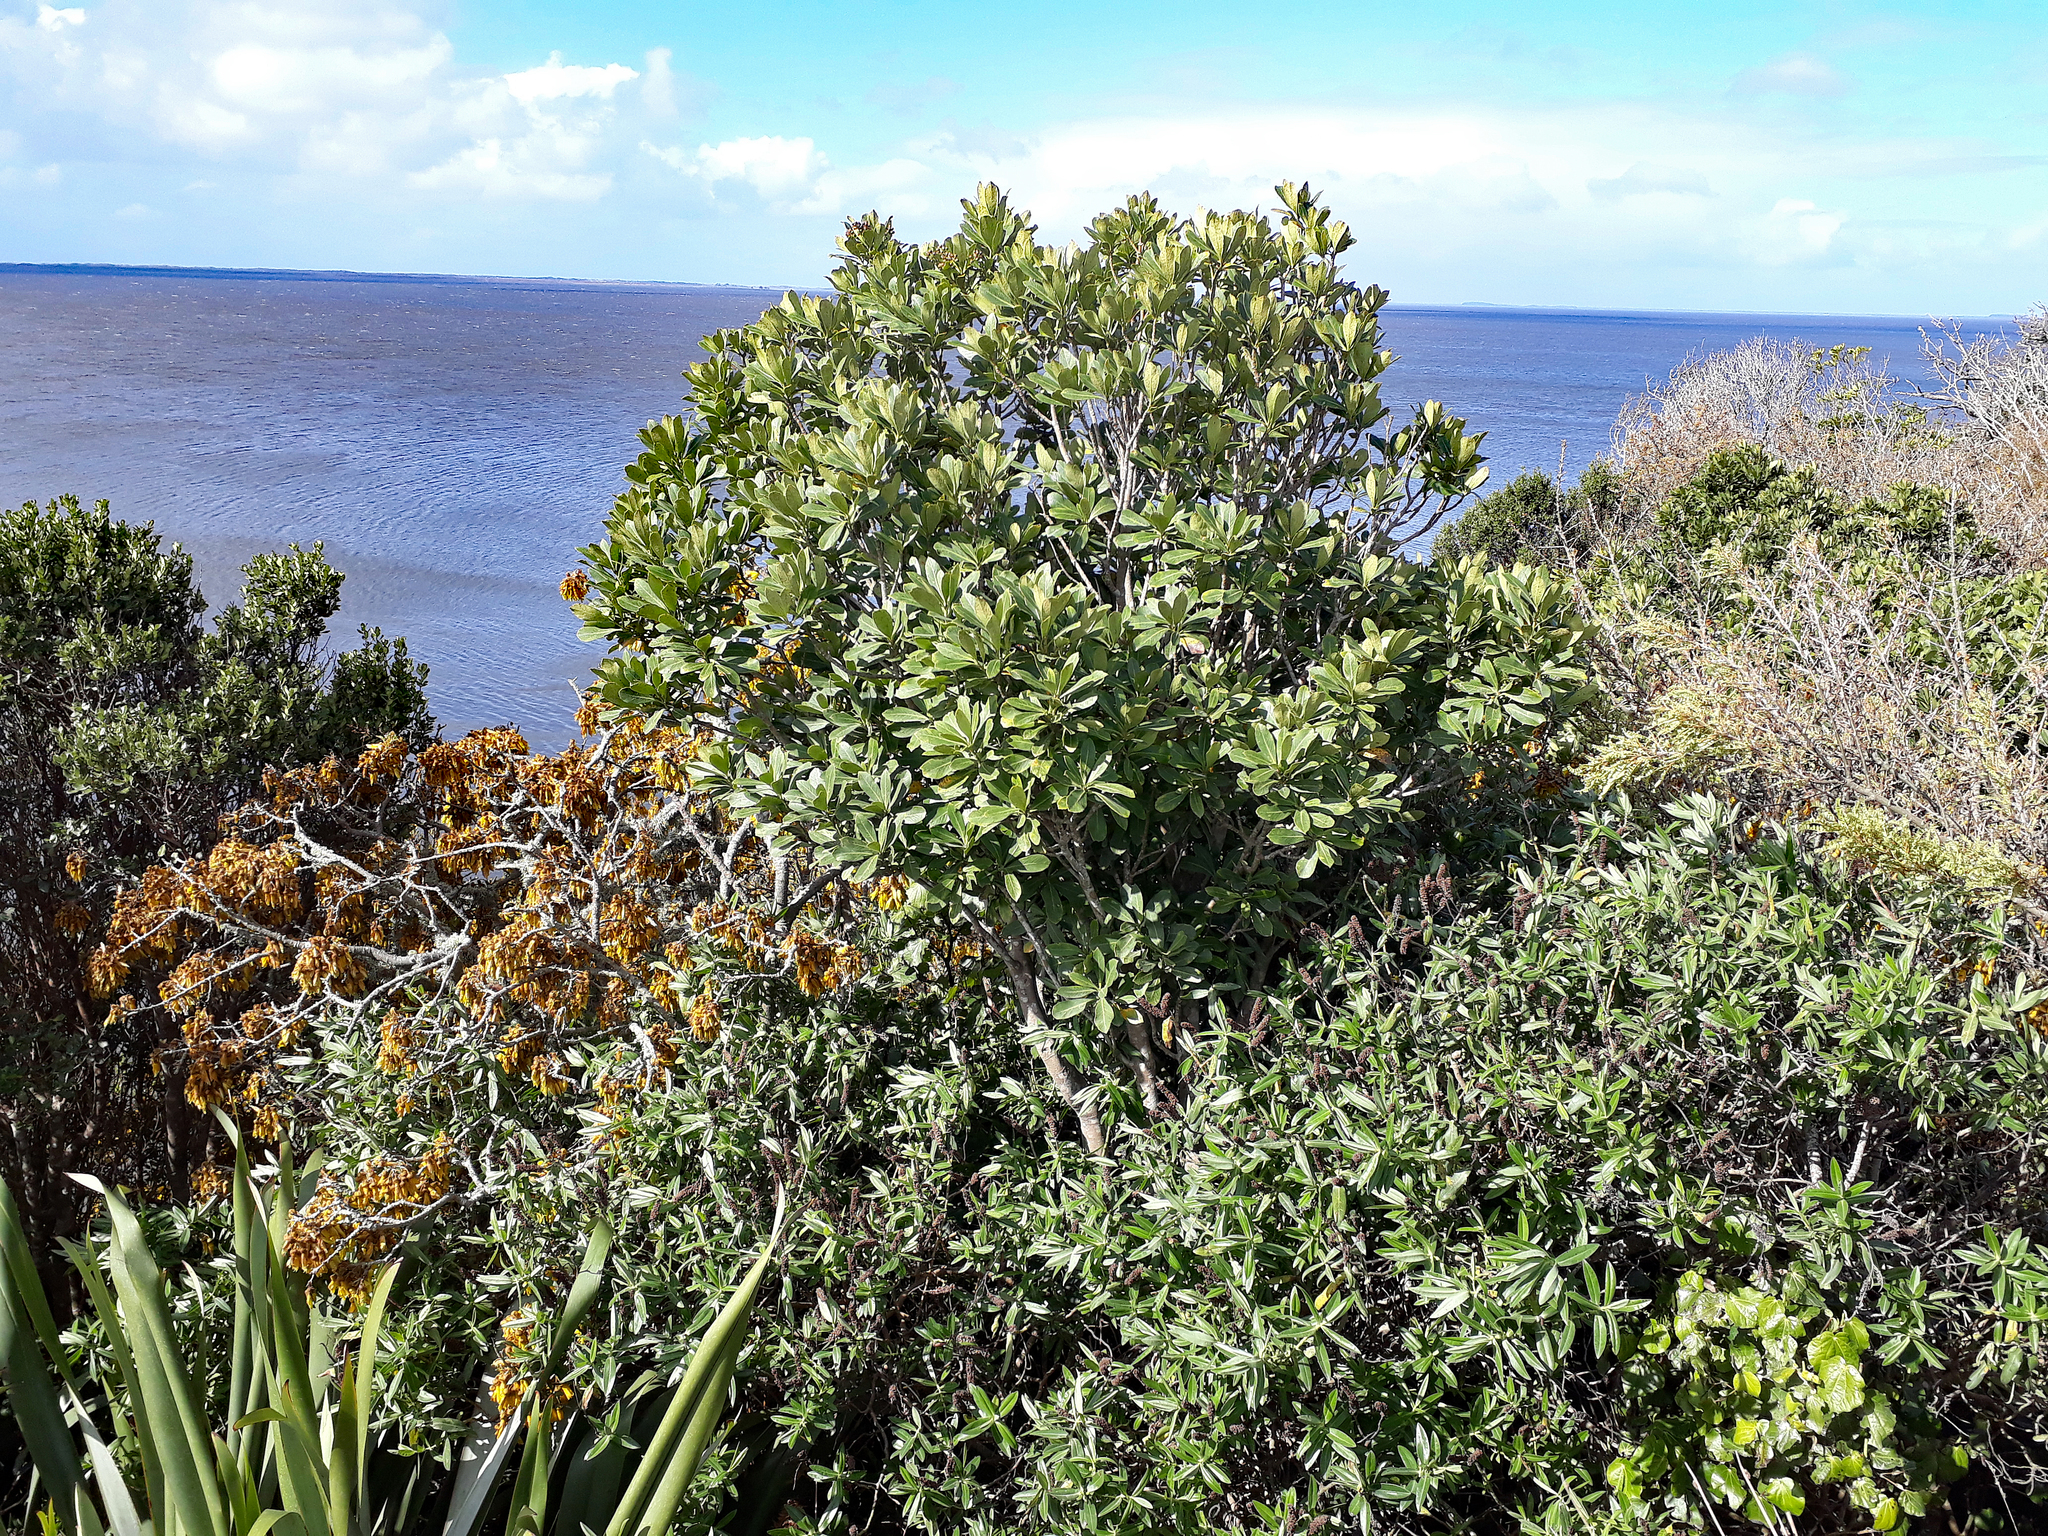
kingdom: Plantae
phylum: Tracheophyta
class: Magnoliopsida
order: Apiales
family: Araliaceae
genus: Pseudopanax
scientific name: Pseudopanax chathamicus
